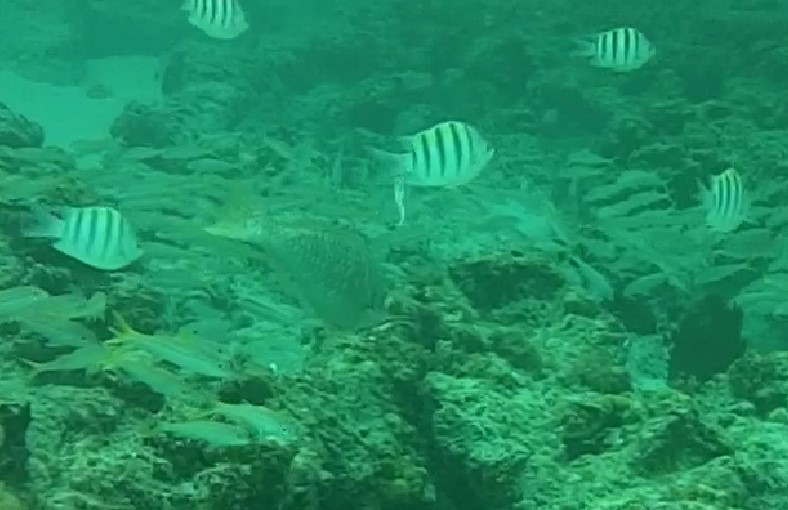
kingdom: Animalia
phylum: Chordata
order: Perciformes
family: Pomacentridae
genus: Abudefduf
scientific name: Abudefduf saxatilis
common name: Sergeant major
